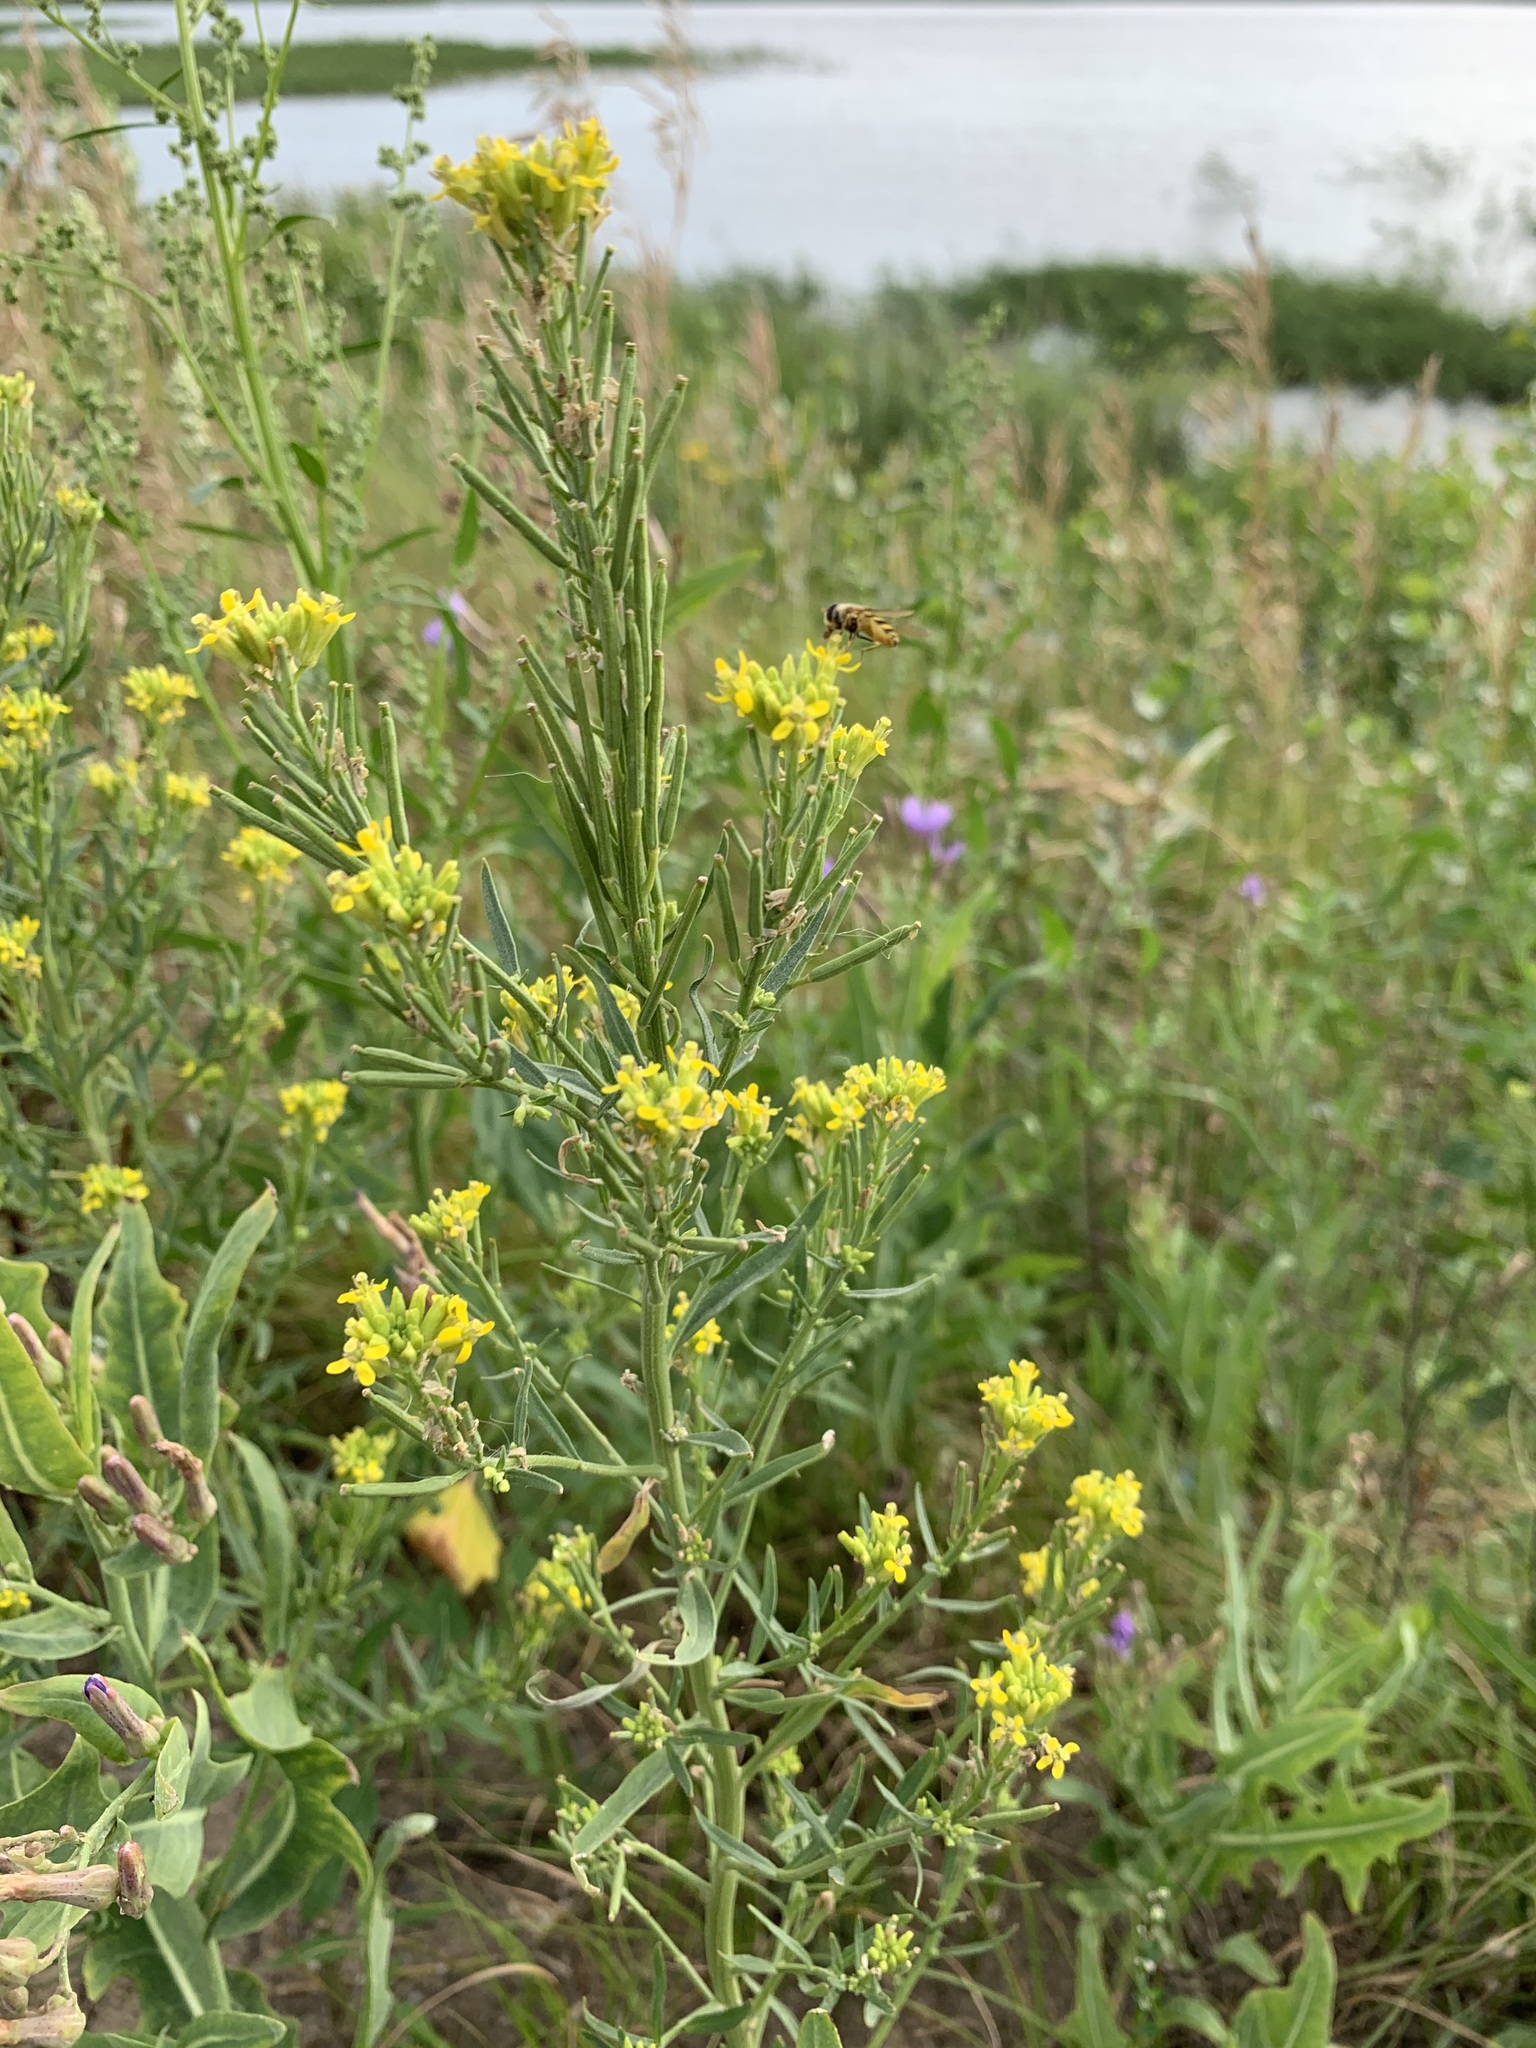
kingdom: Plantae
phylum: Tracheophyta
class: Magnoliopsida
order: Brassicales
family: Brassicaceae
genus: Erysimum
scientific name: Erysimum hieraciifolium
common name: European wallflower
